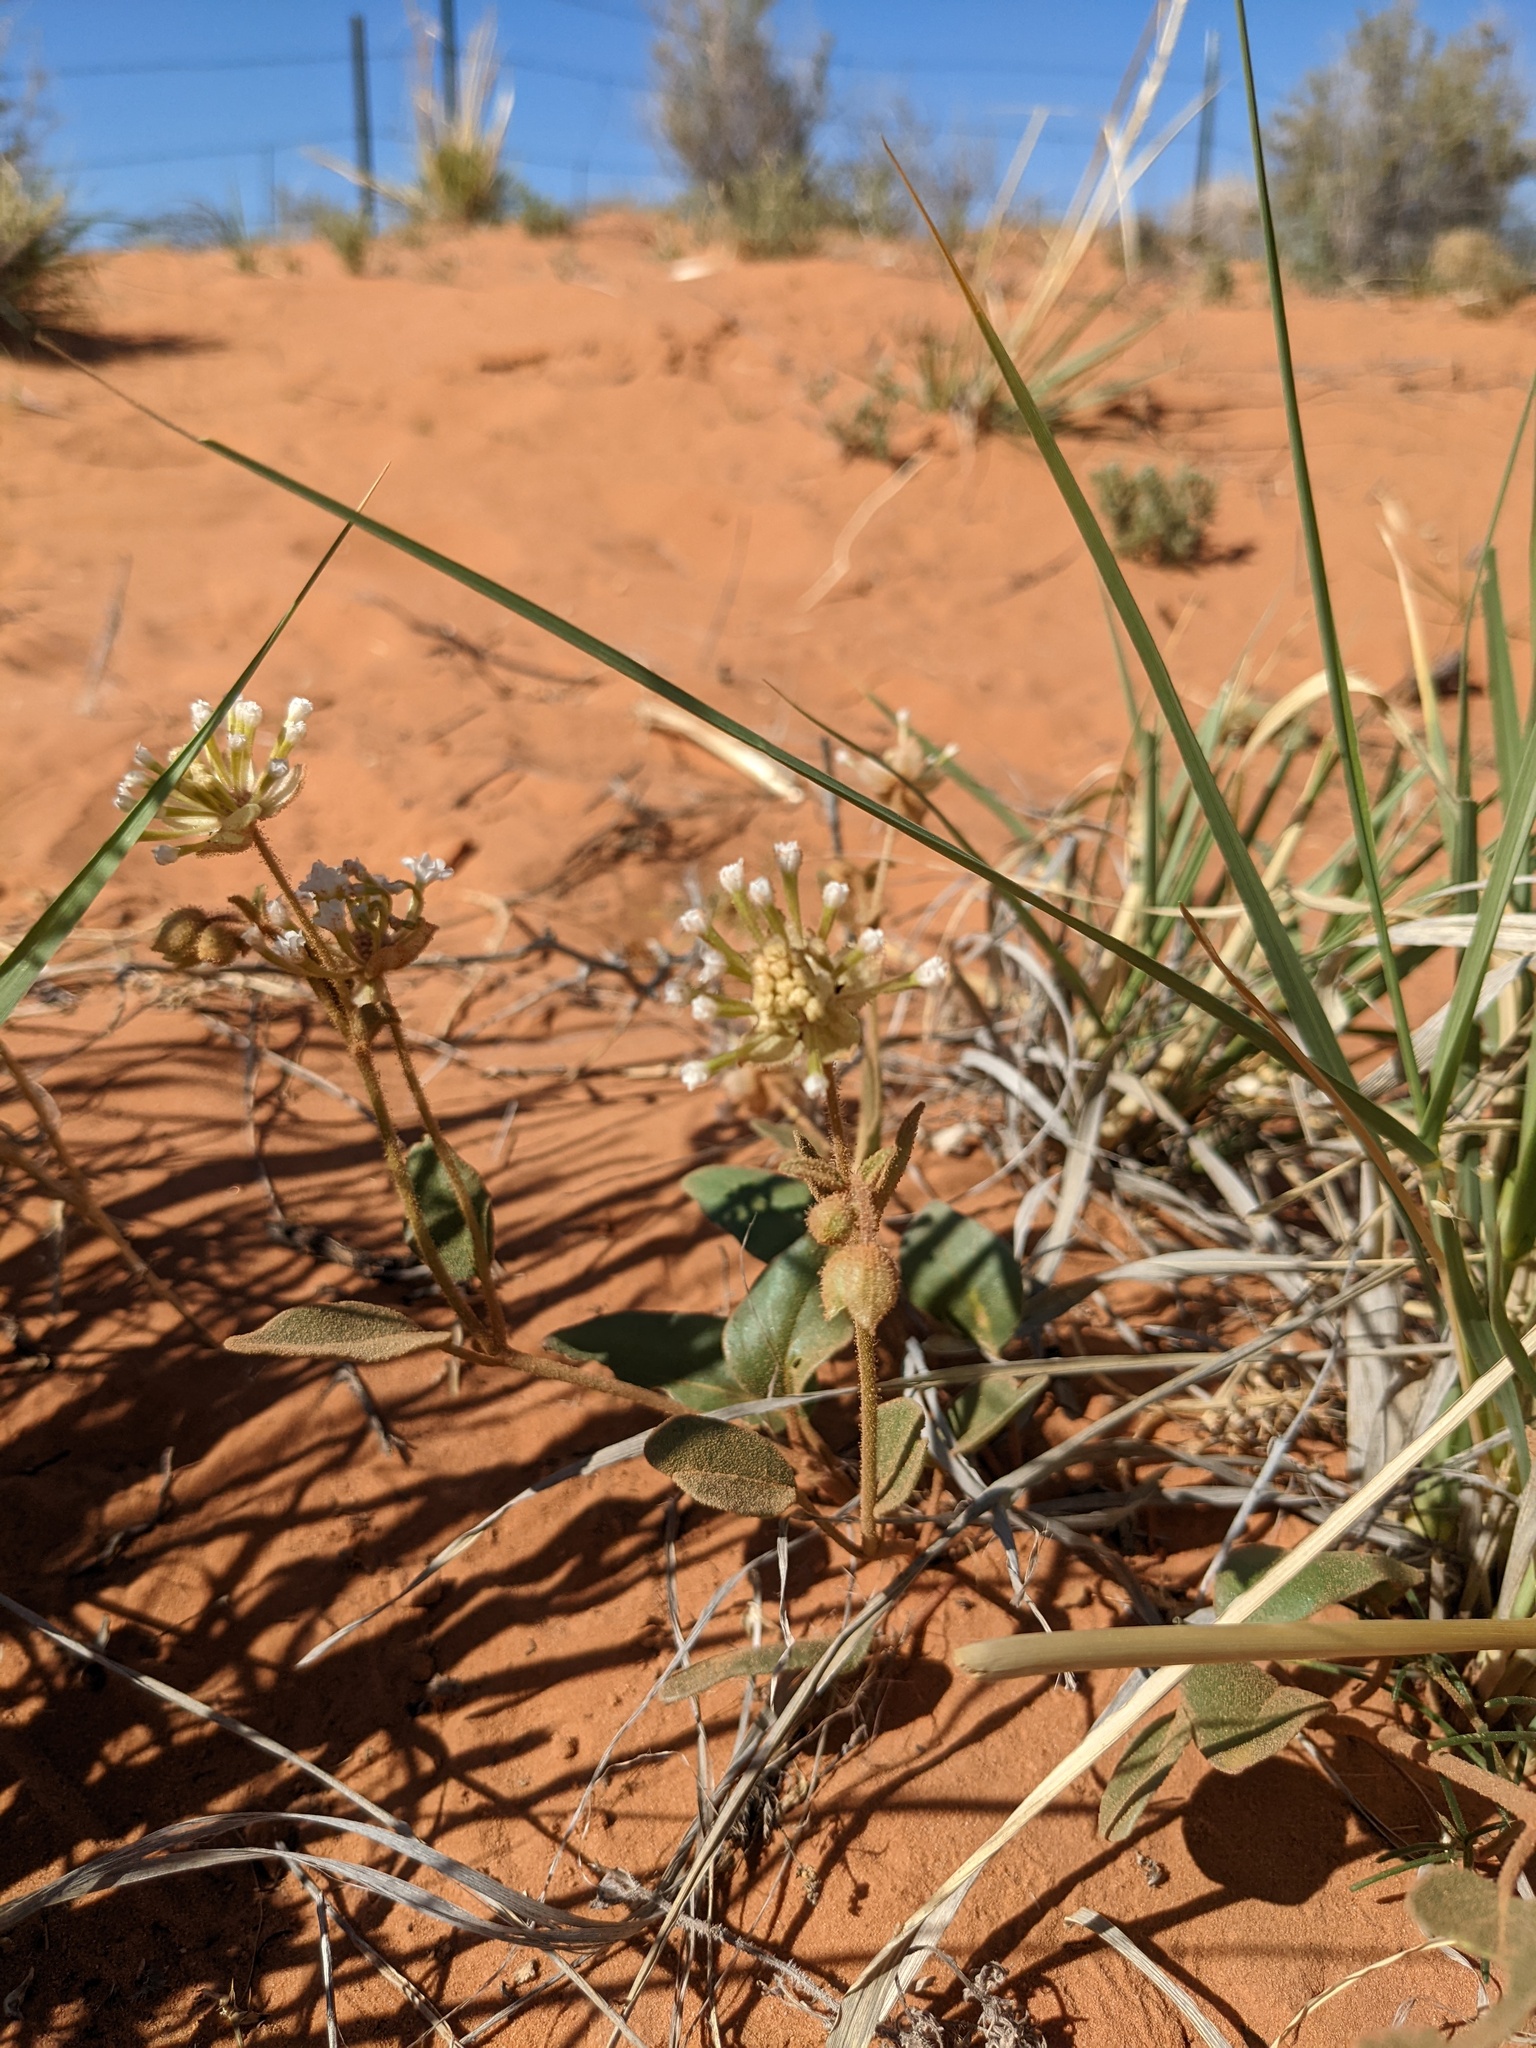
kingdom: Plantae
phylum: Tracheophyta
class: Magnoliopsida
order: Caryophyllales
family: Nyctaginaceae
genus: Abronia
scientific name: Abronia elliptica
